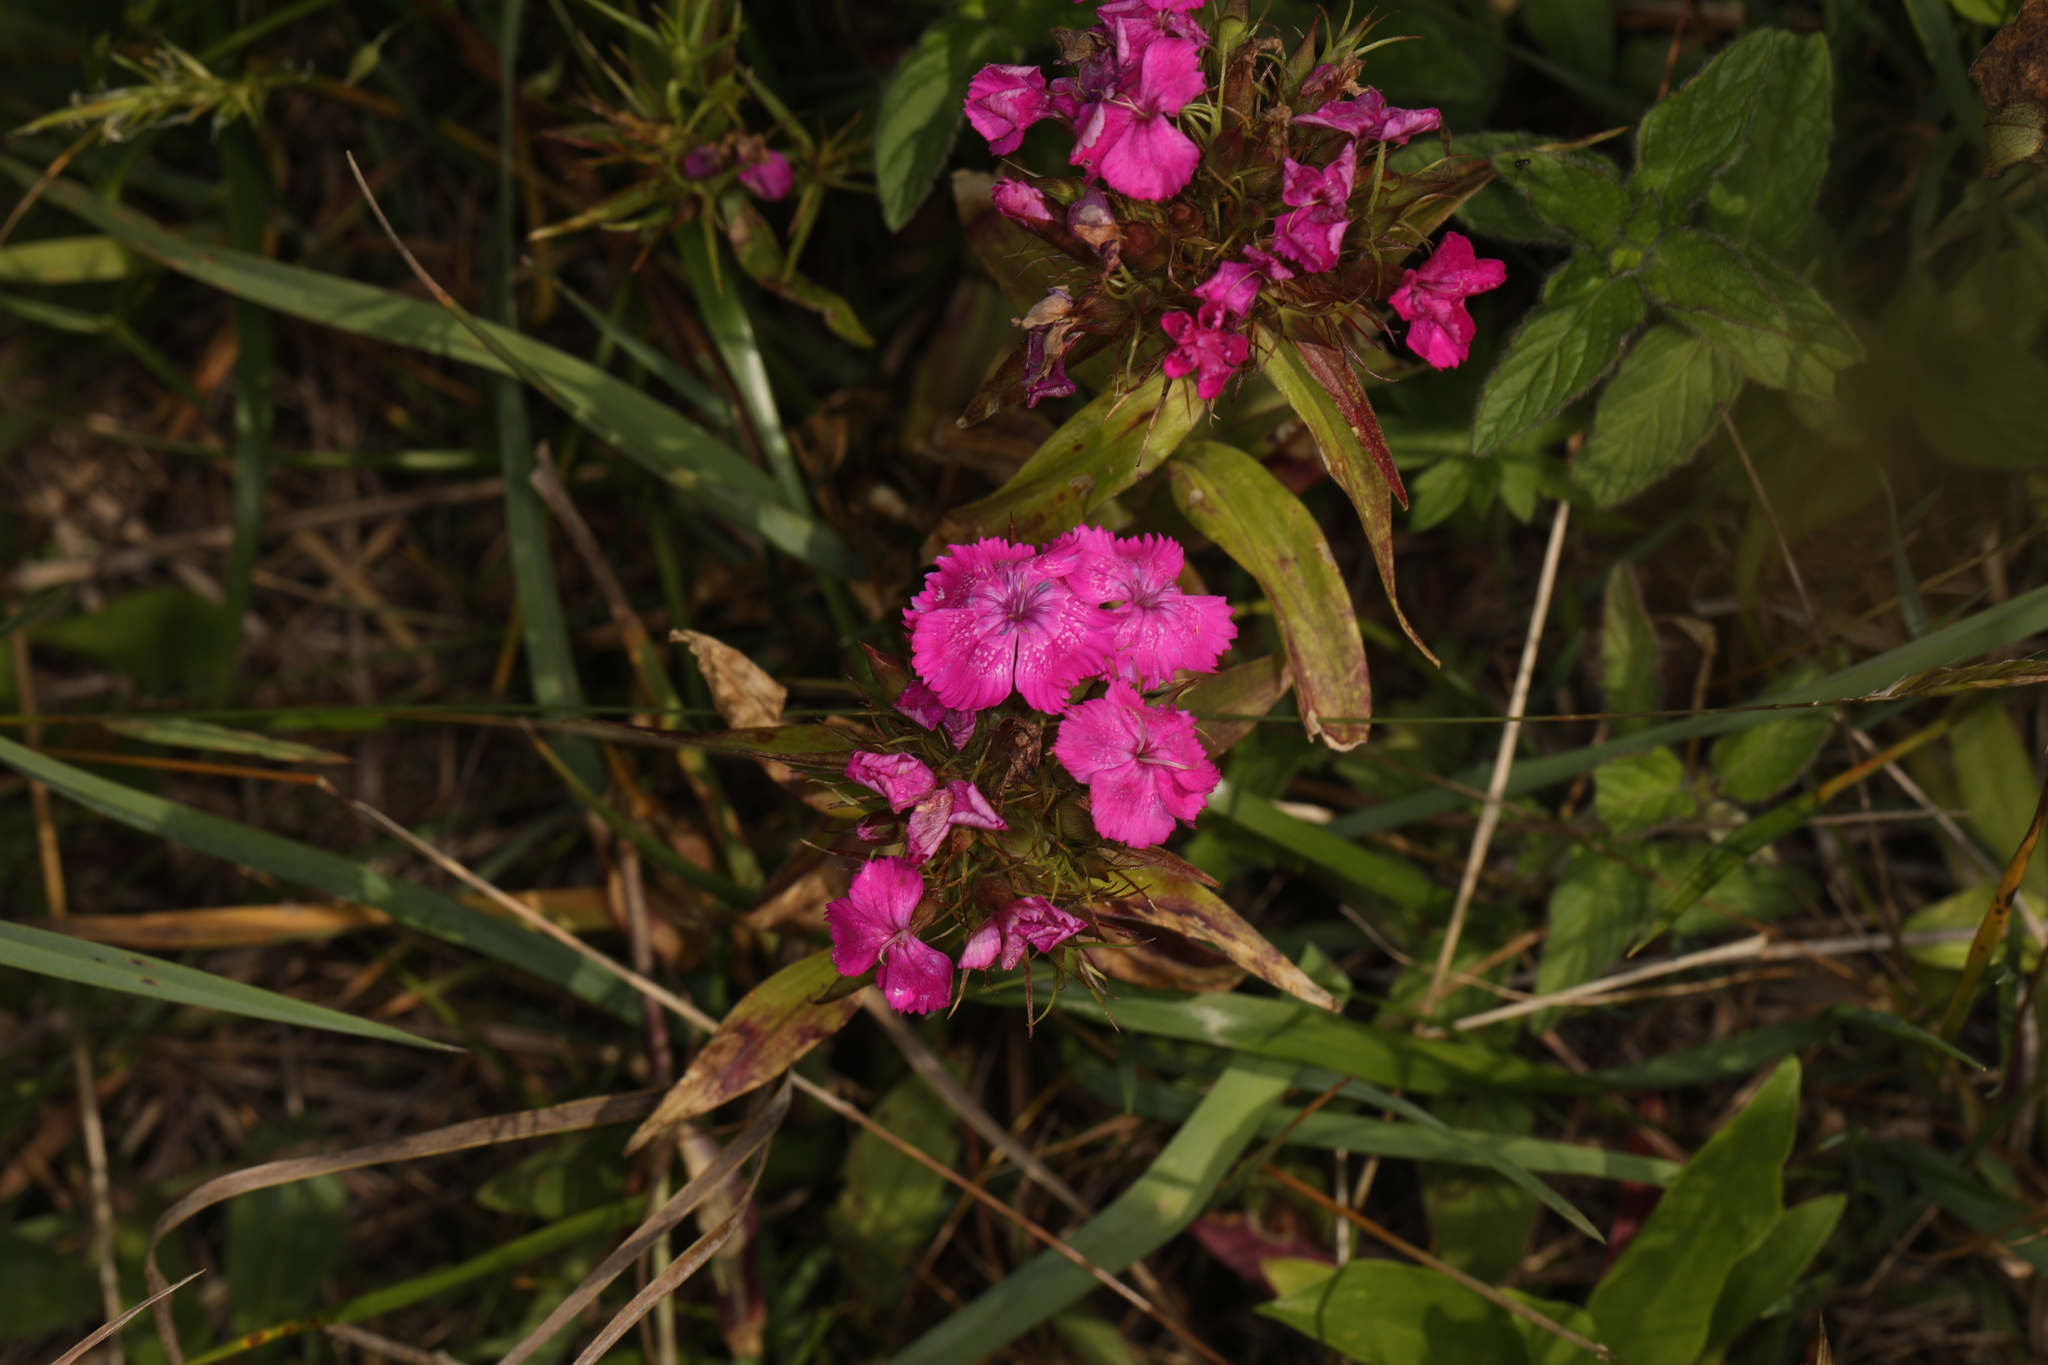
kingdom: Plantae
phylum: Tracheophyta
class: Magnoliopsida
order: Caryophyllales
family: Caryophyllaceae
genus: Dianthus
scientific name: Dianthus barbatus
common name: Sweet-william
